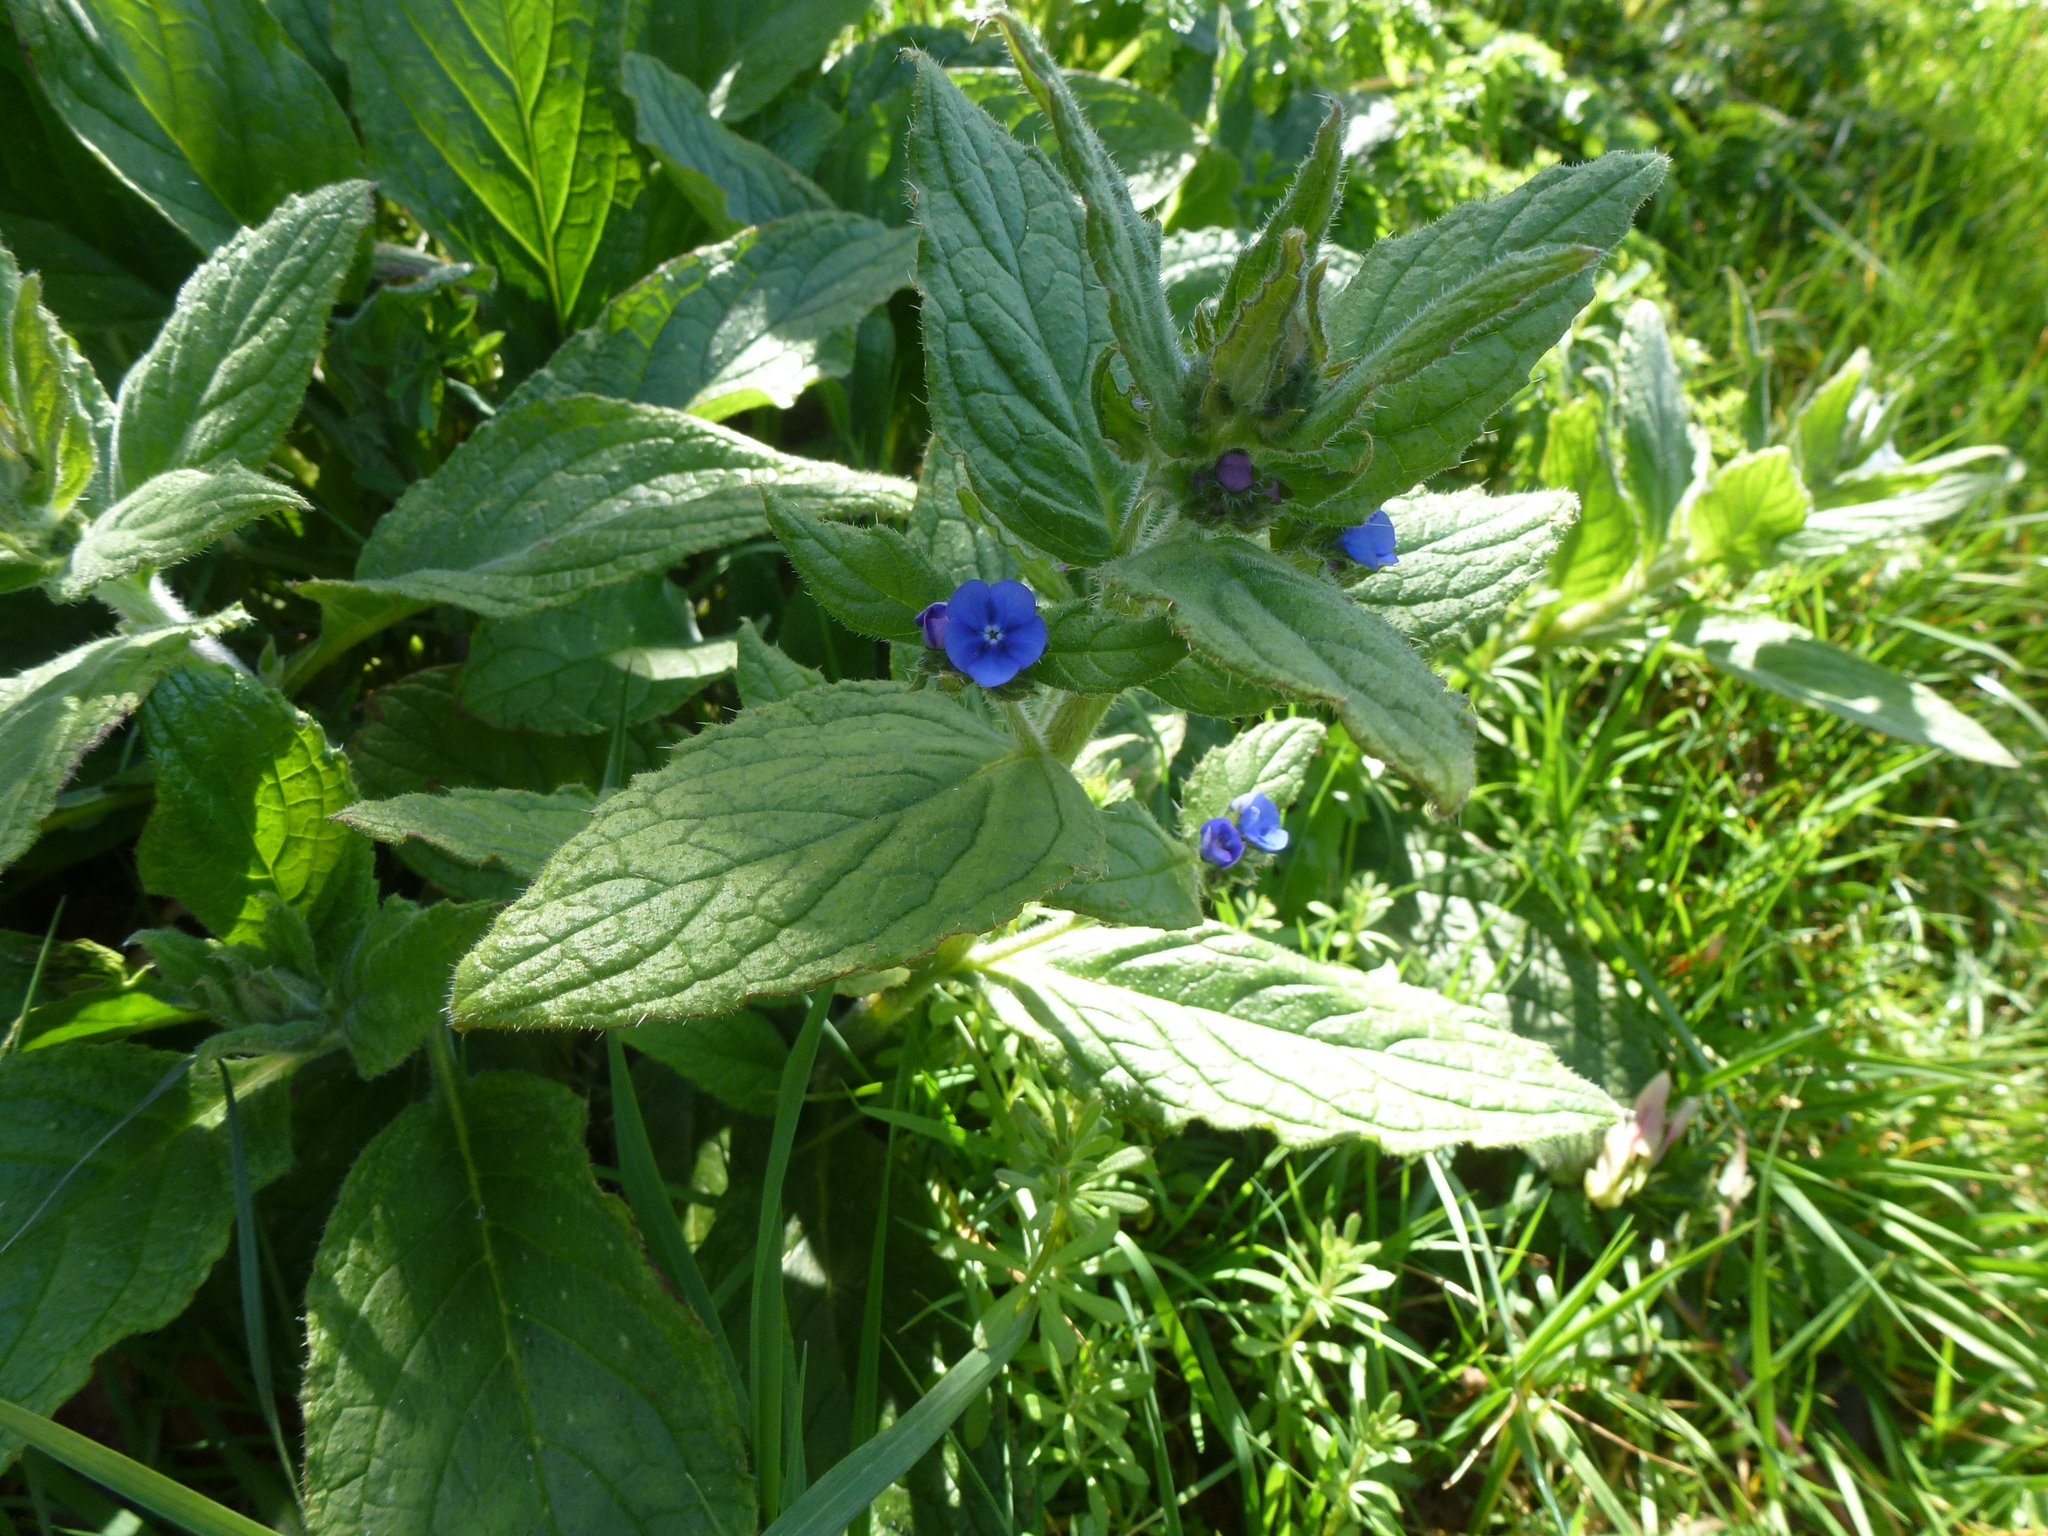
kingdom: Plantae
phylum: Tracheophyta
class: Magnoliopsida
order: Boraginales
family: Boraginaceae
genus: Pentaglottis
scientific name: Pentaglottis sempervirens
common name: Green alkanet
